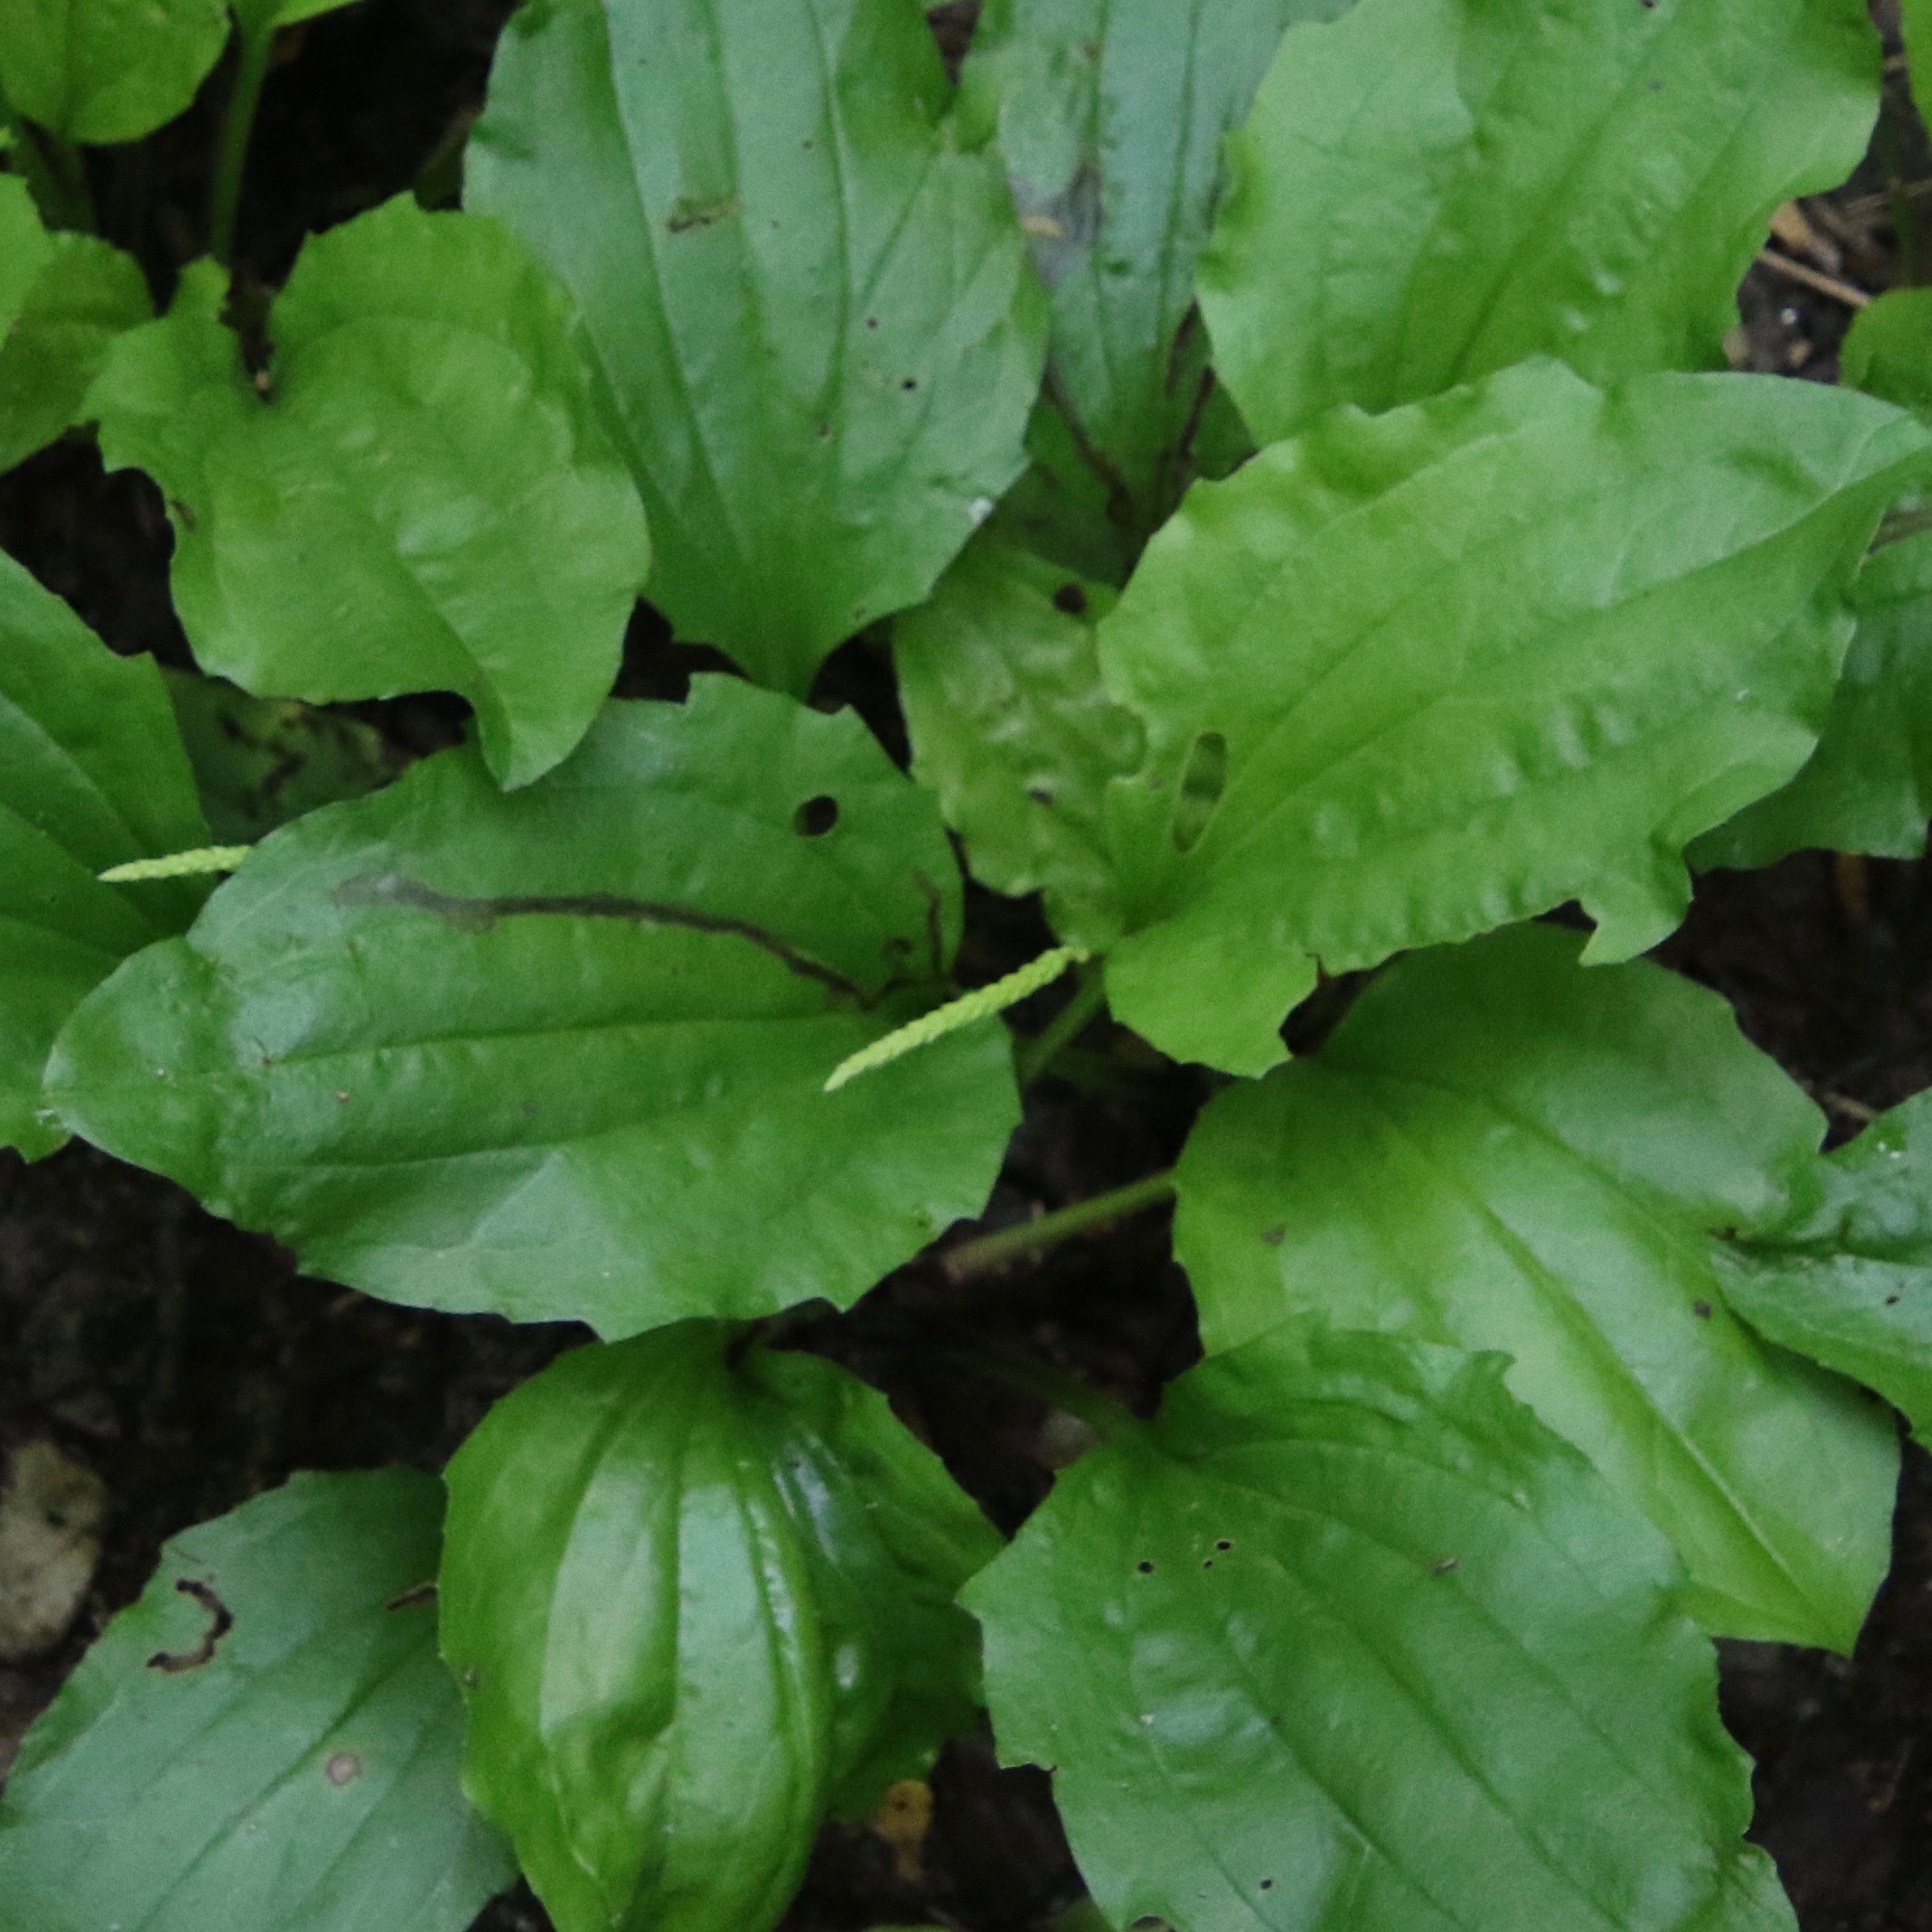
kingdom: Plantae
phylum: Tracheophyta
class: Magnoliopsida
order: Lamiales
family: Plantaginaceae
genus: Plantago
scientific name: Plantago rugelii
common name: American plantain
